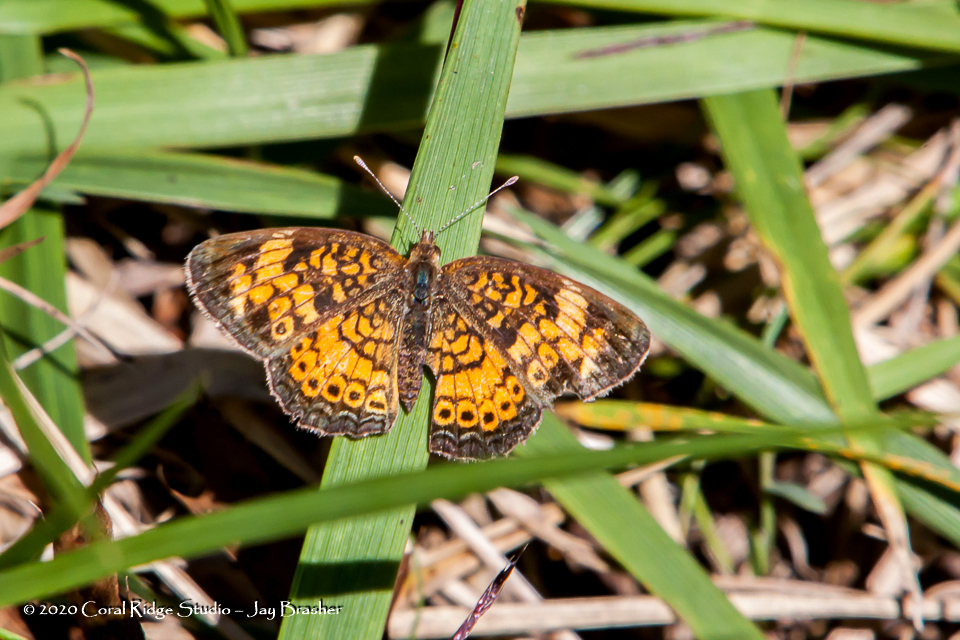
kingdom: Animalia
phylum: Arthropoda
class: Insecta
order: Lepidoptera
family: Nymphalidae
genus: Phyciodes
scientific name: Phyciodes tharos
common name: Pearl crescent
